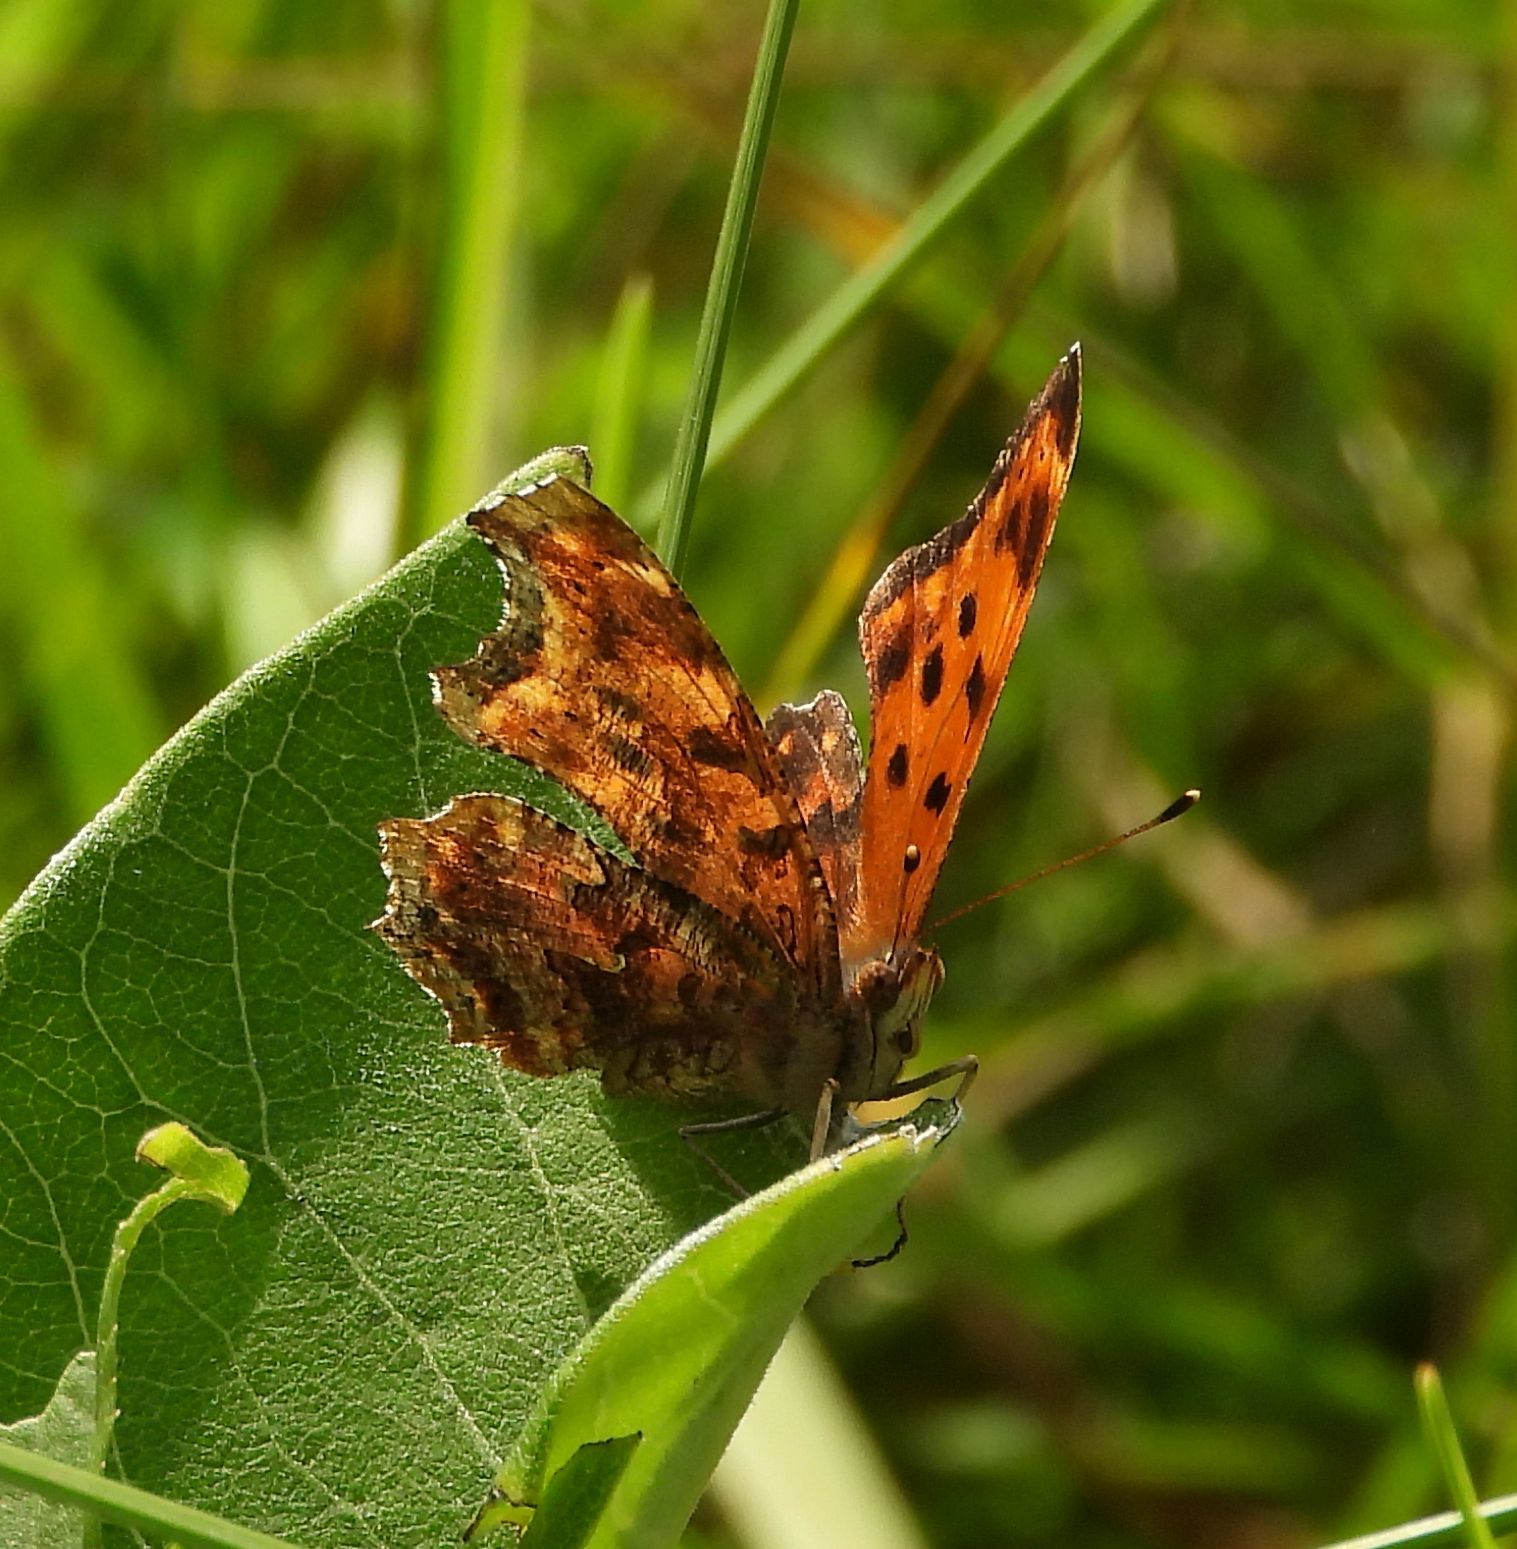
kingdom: Animalia
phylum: Arthropoda
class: Insecta
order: Lepidoptera
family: Nymphalidae
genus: Polygonia
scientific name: Polygonia comma
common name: Eastern comma
